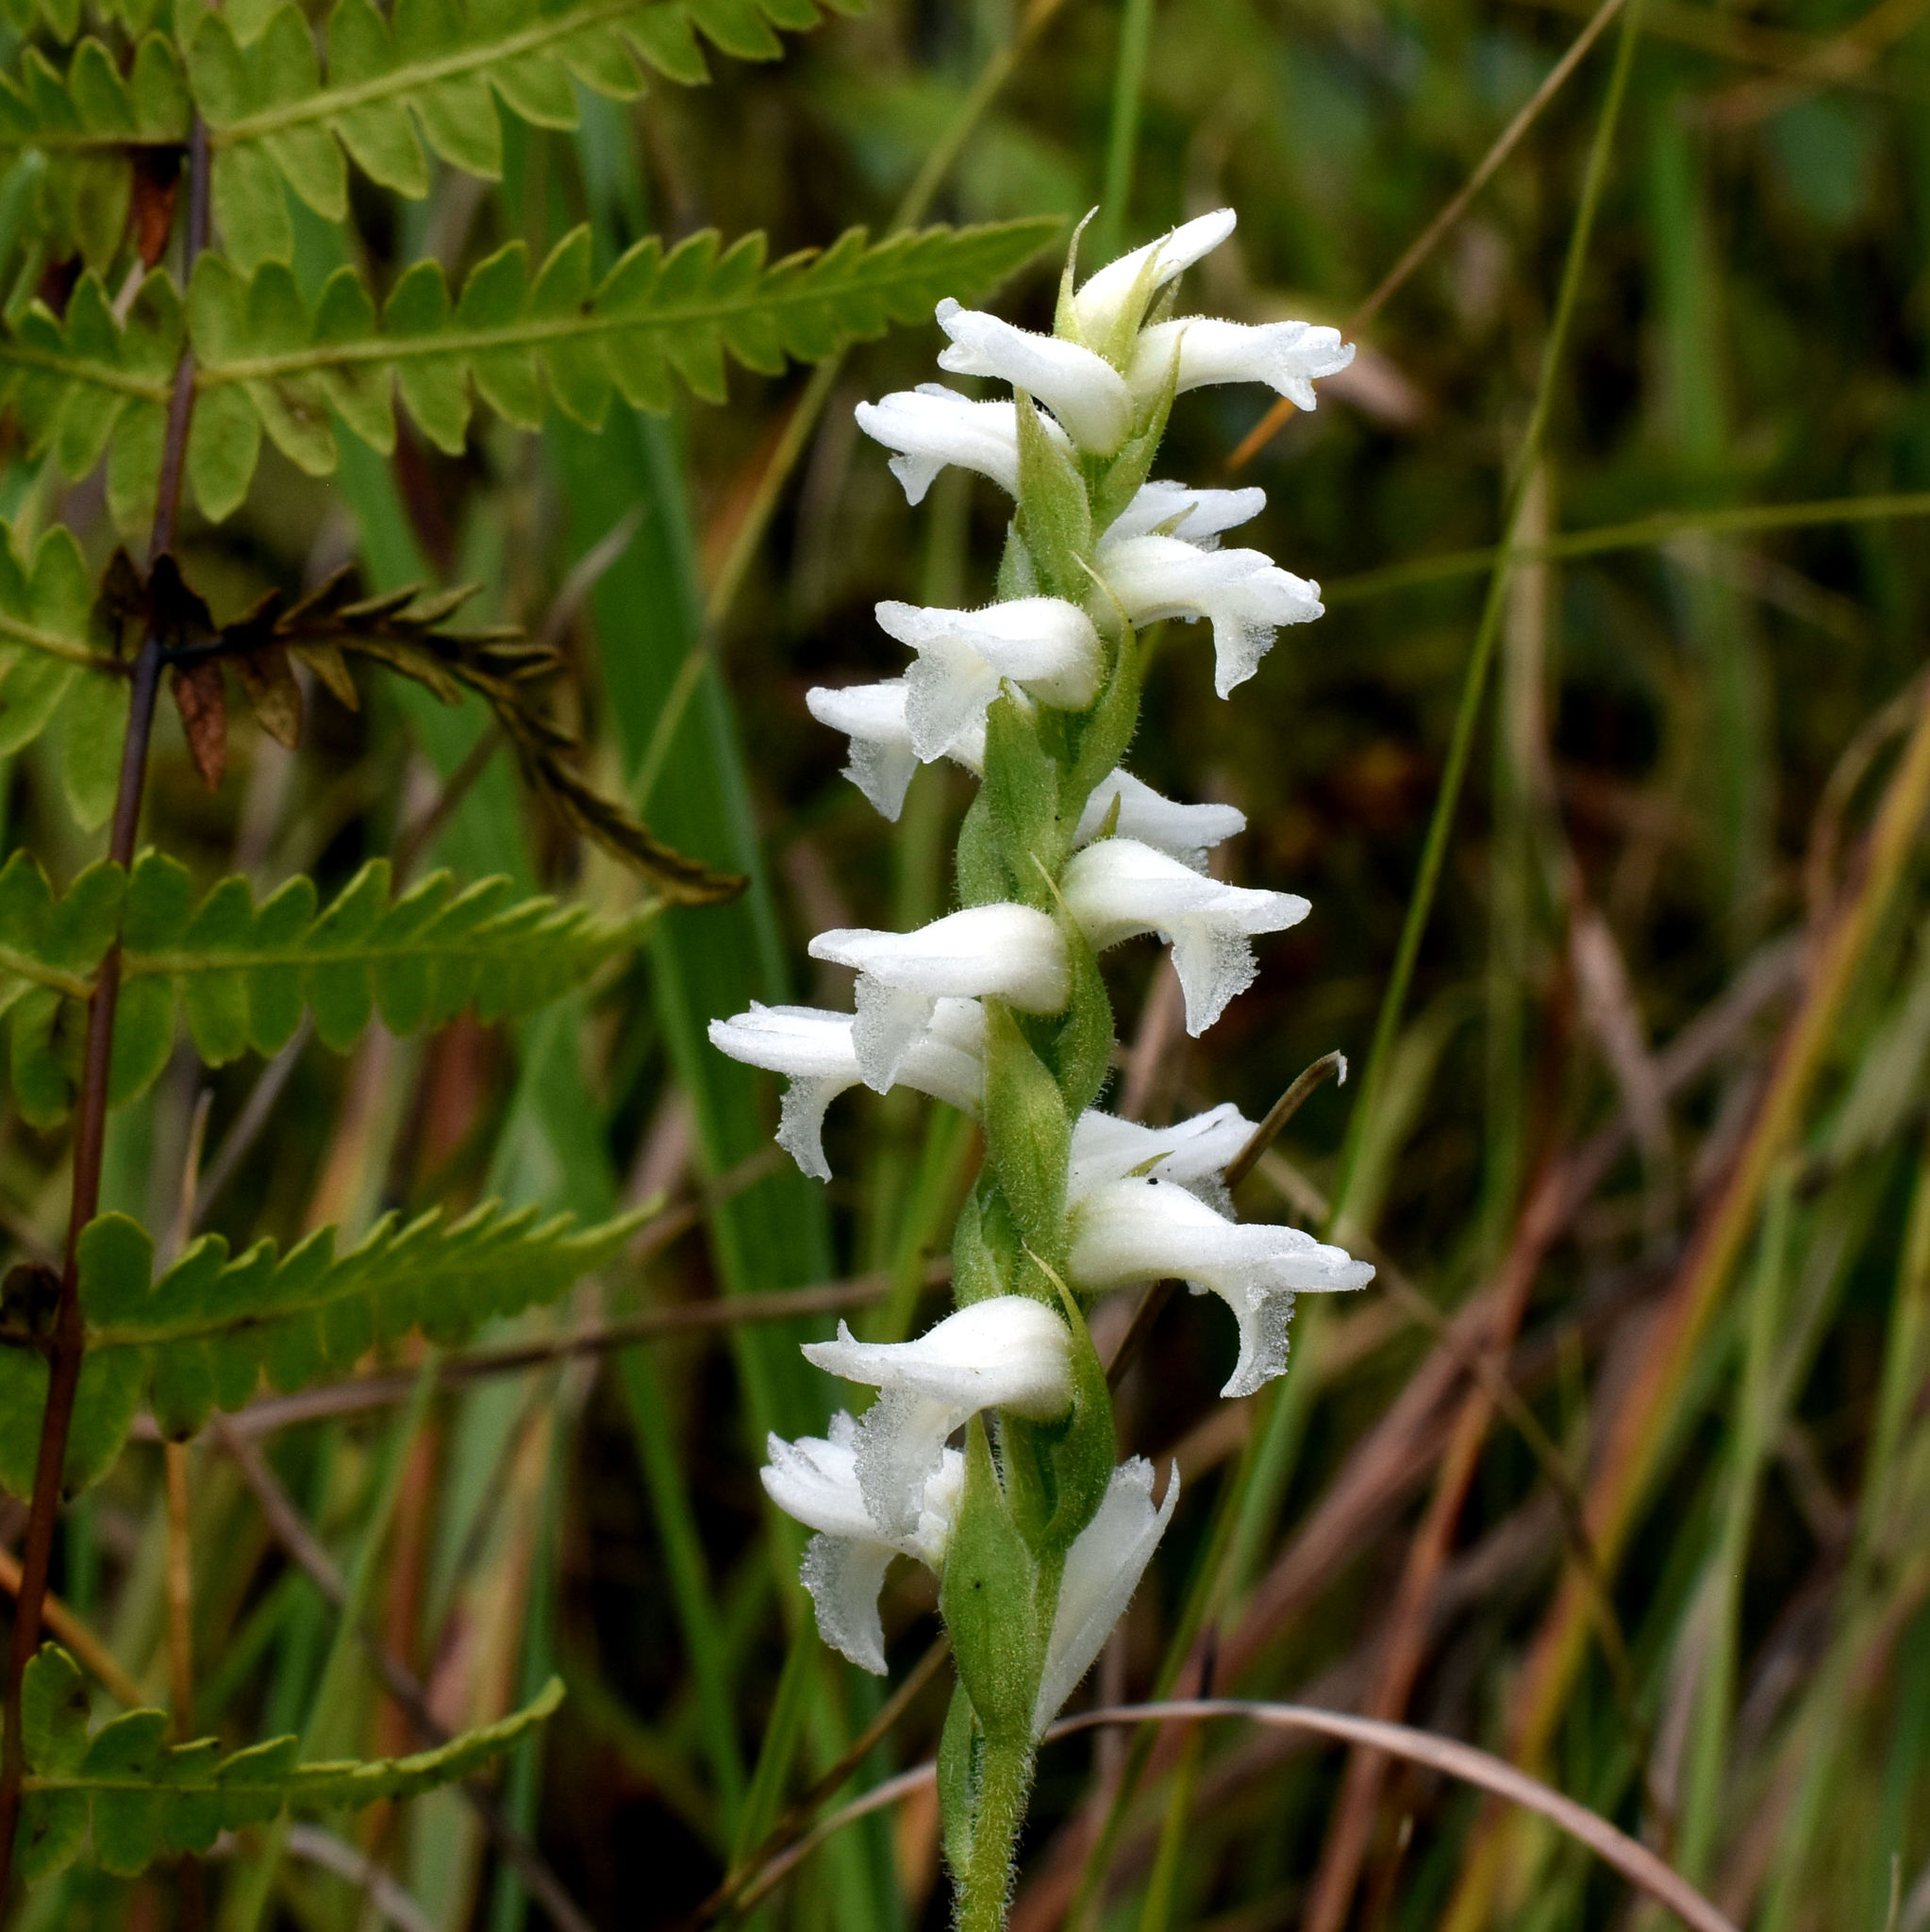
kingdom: Plantae
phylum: Tracheophyta
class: Liliopsida
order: Asparagales
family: Orchidaceae
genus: Spiranthes
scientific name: Spiranthes incurva
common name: Sphinx ladies'-tresses
